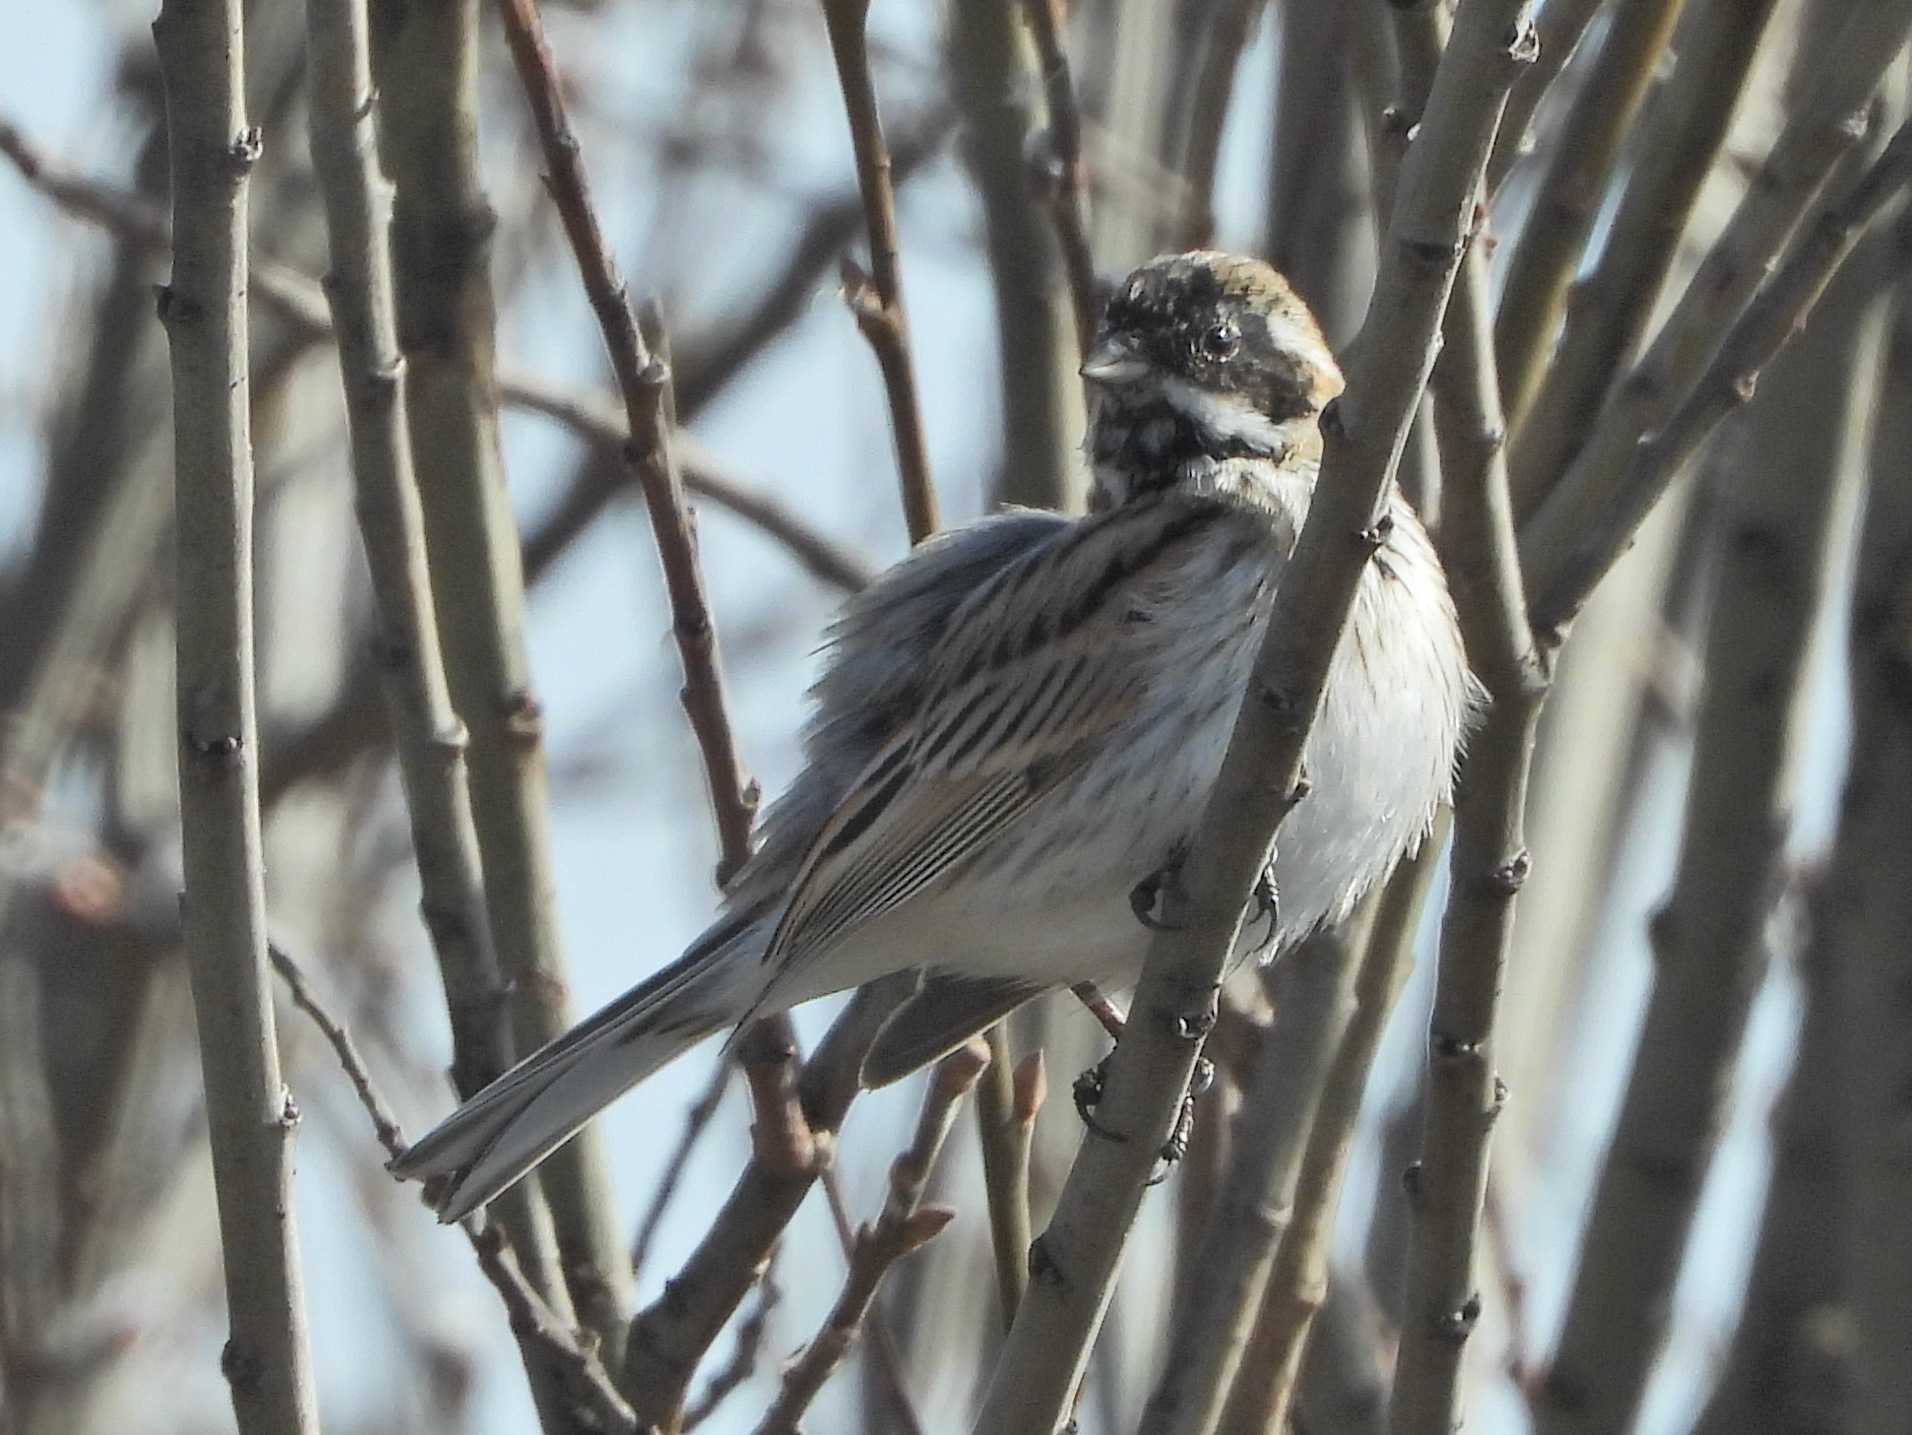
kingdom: Animalia
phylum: Chordata
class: Aves
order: Passeriformes
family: Emberizidae
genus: Emberiza
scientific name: Emberiza schoeniclus
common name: Reed bunting
